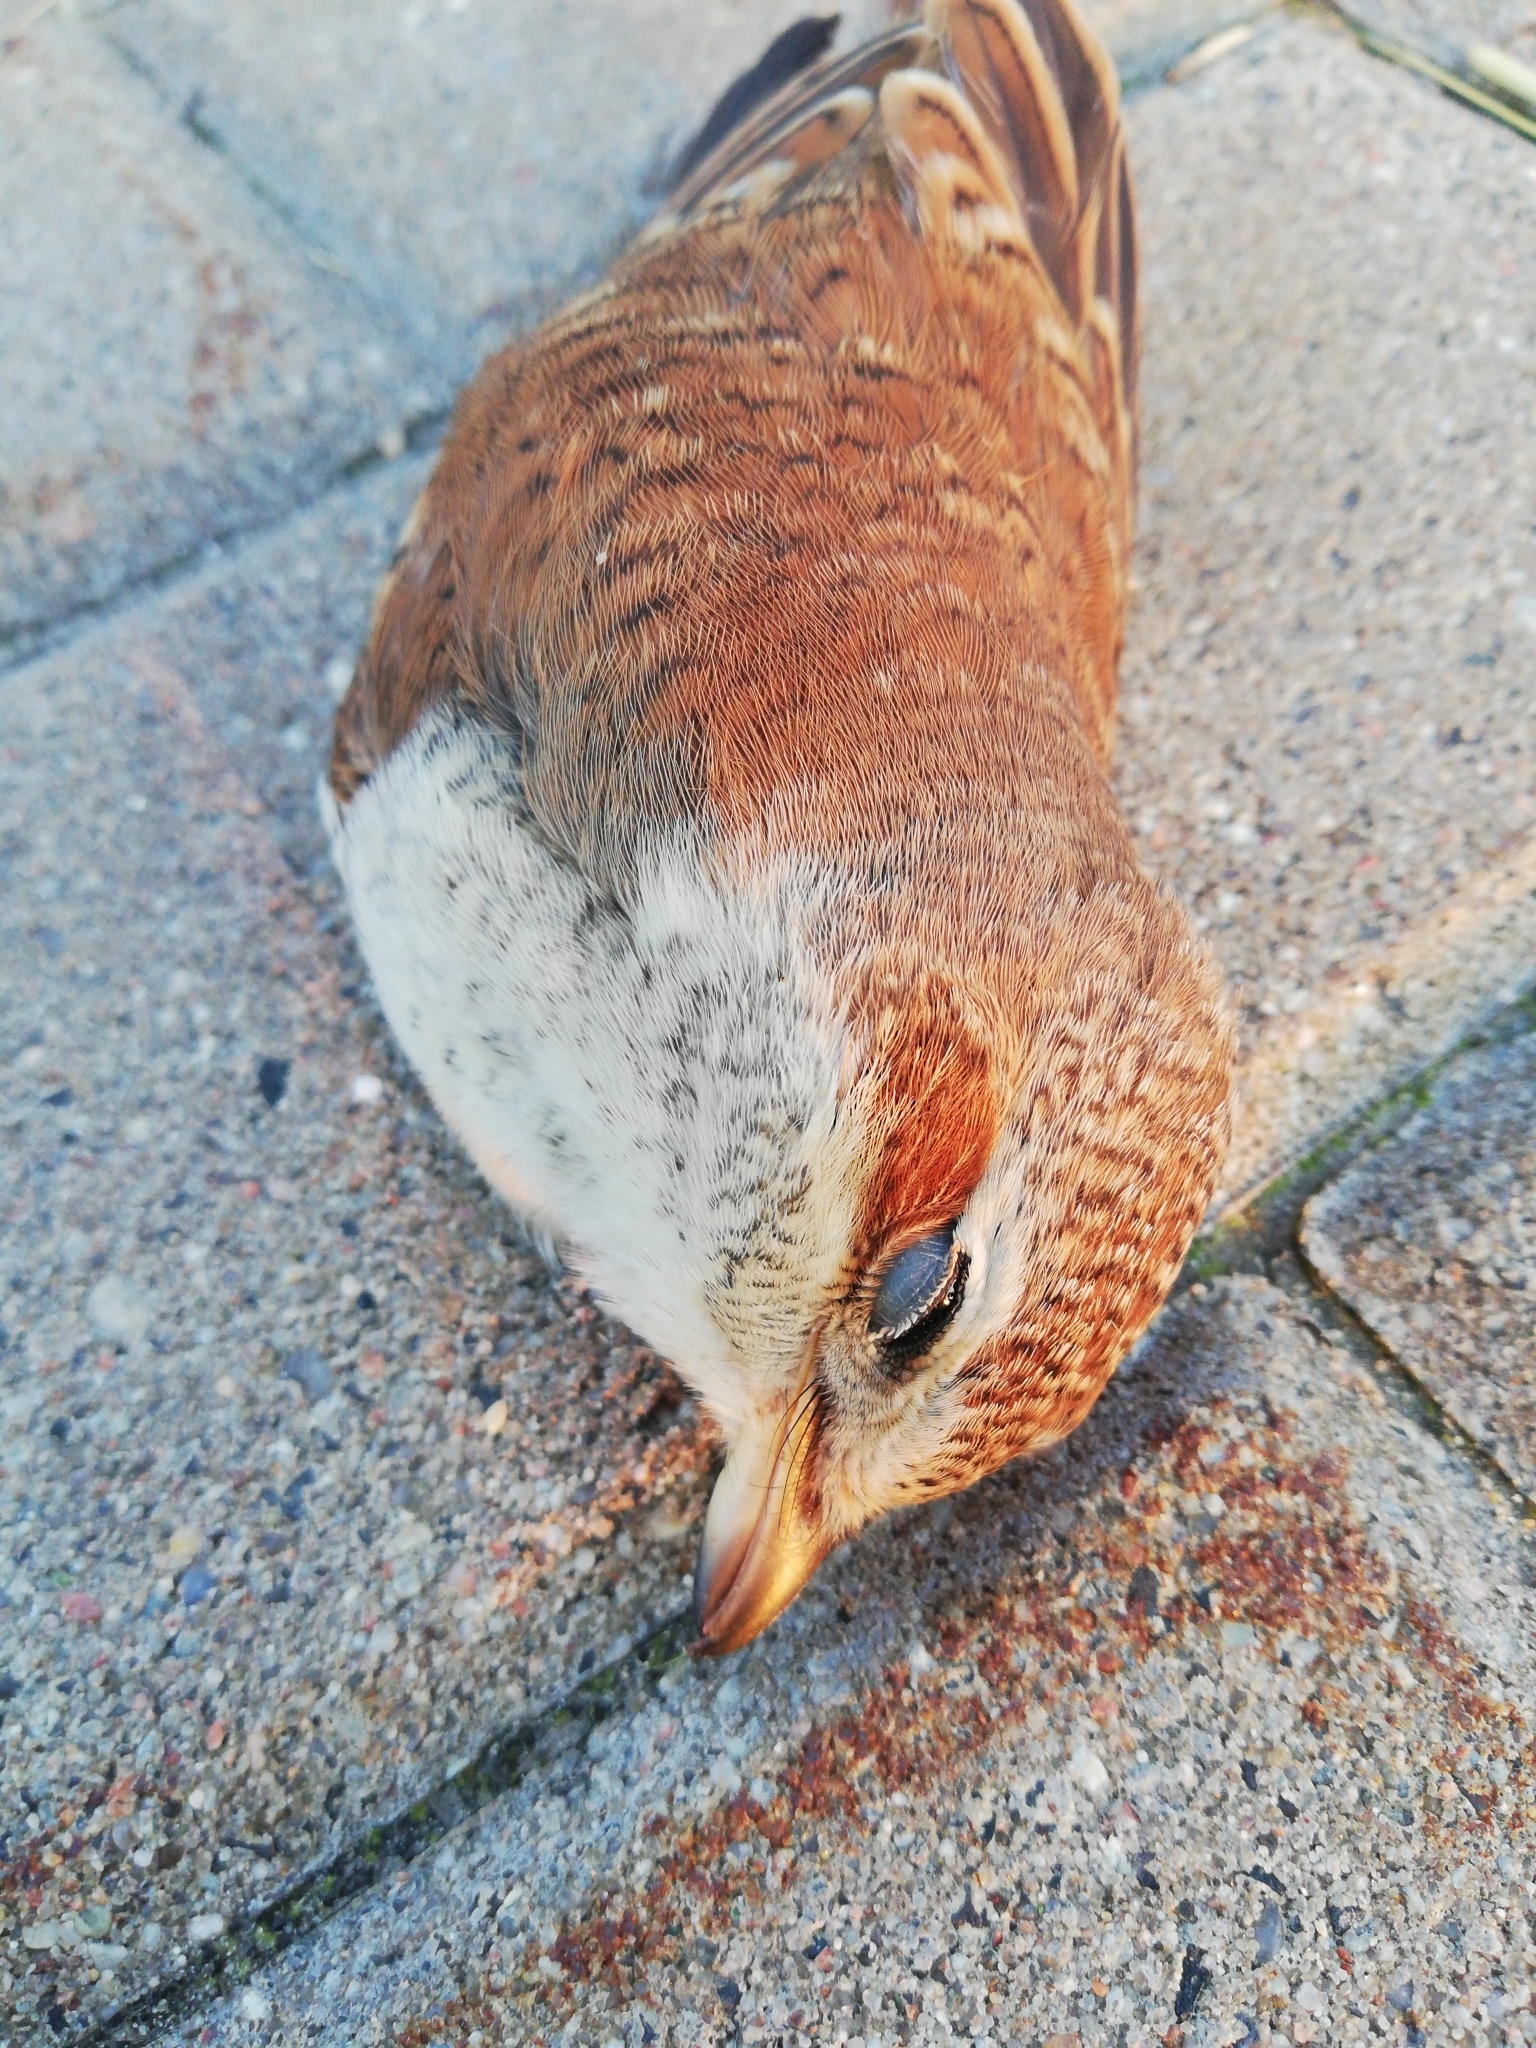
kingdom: Animalia
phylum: Chordata
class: Aves
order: Passeriformes
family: Laniidae
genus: Lanius
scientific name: Lanius collurio
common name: Red-backed shrike
